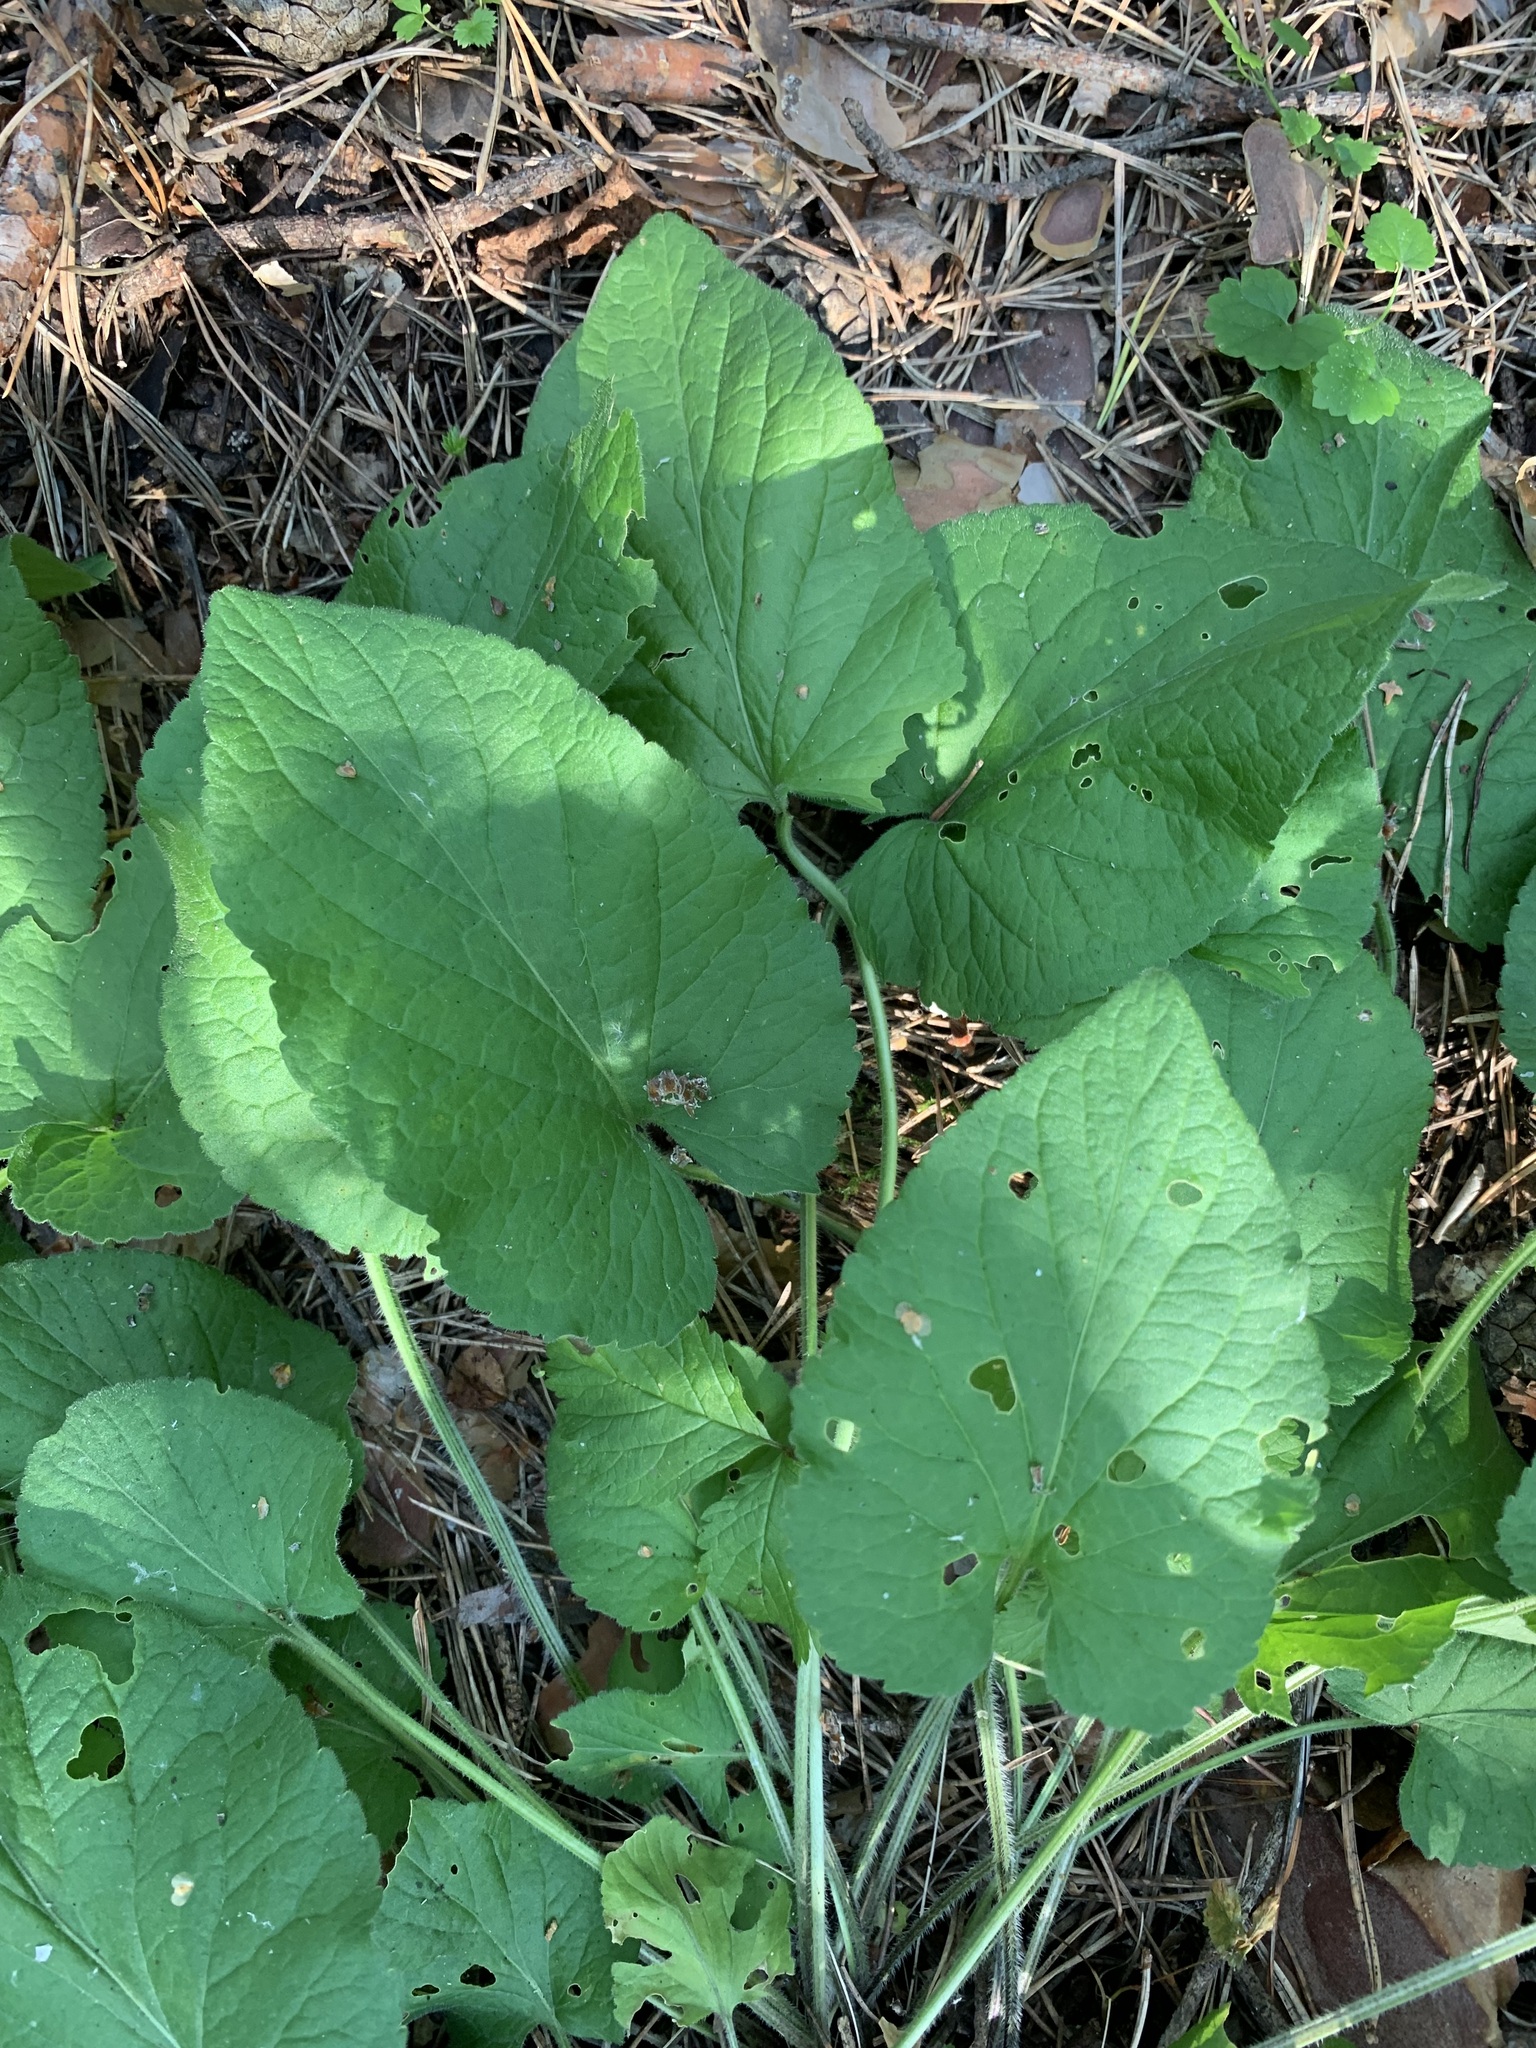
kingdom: Plantae
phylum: Tracheophyta
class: Magnoliopsida
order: Malpighiales
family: Violaceae
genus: Viola
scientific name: Viola hirta
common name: Hairy violet
